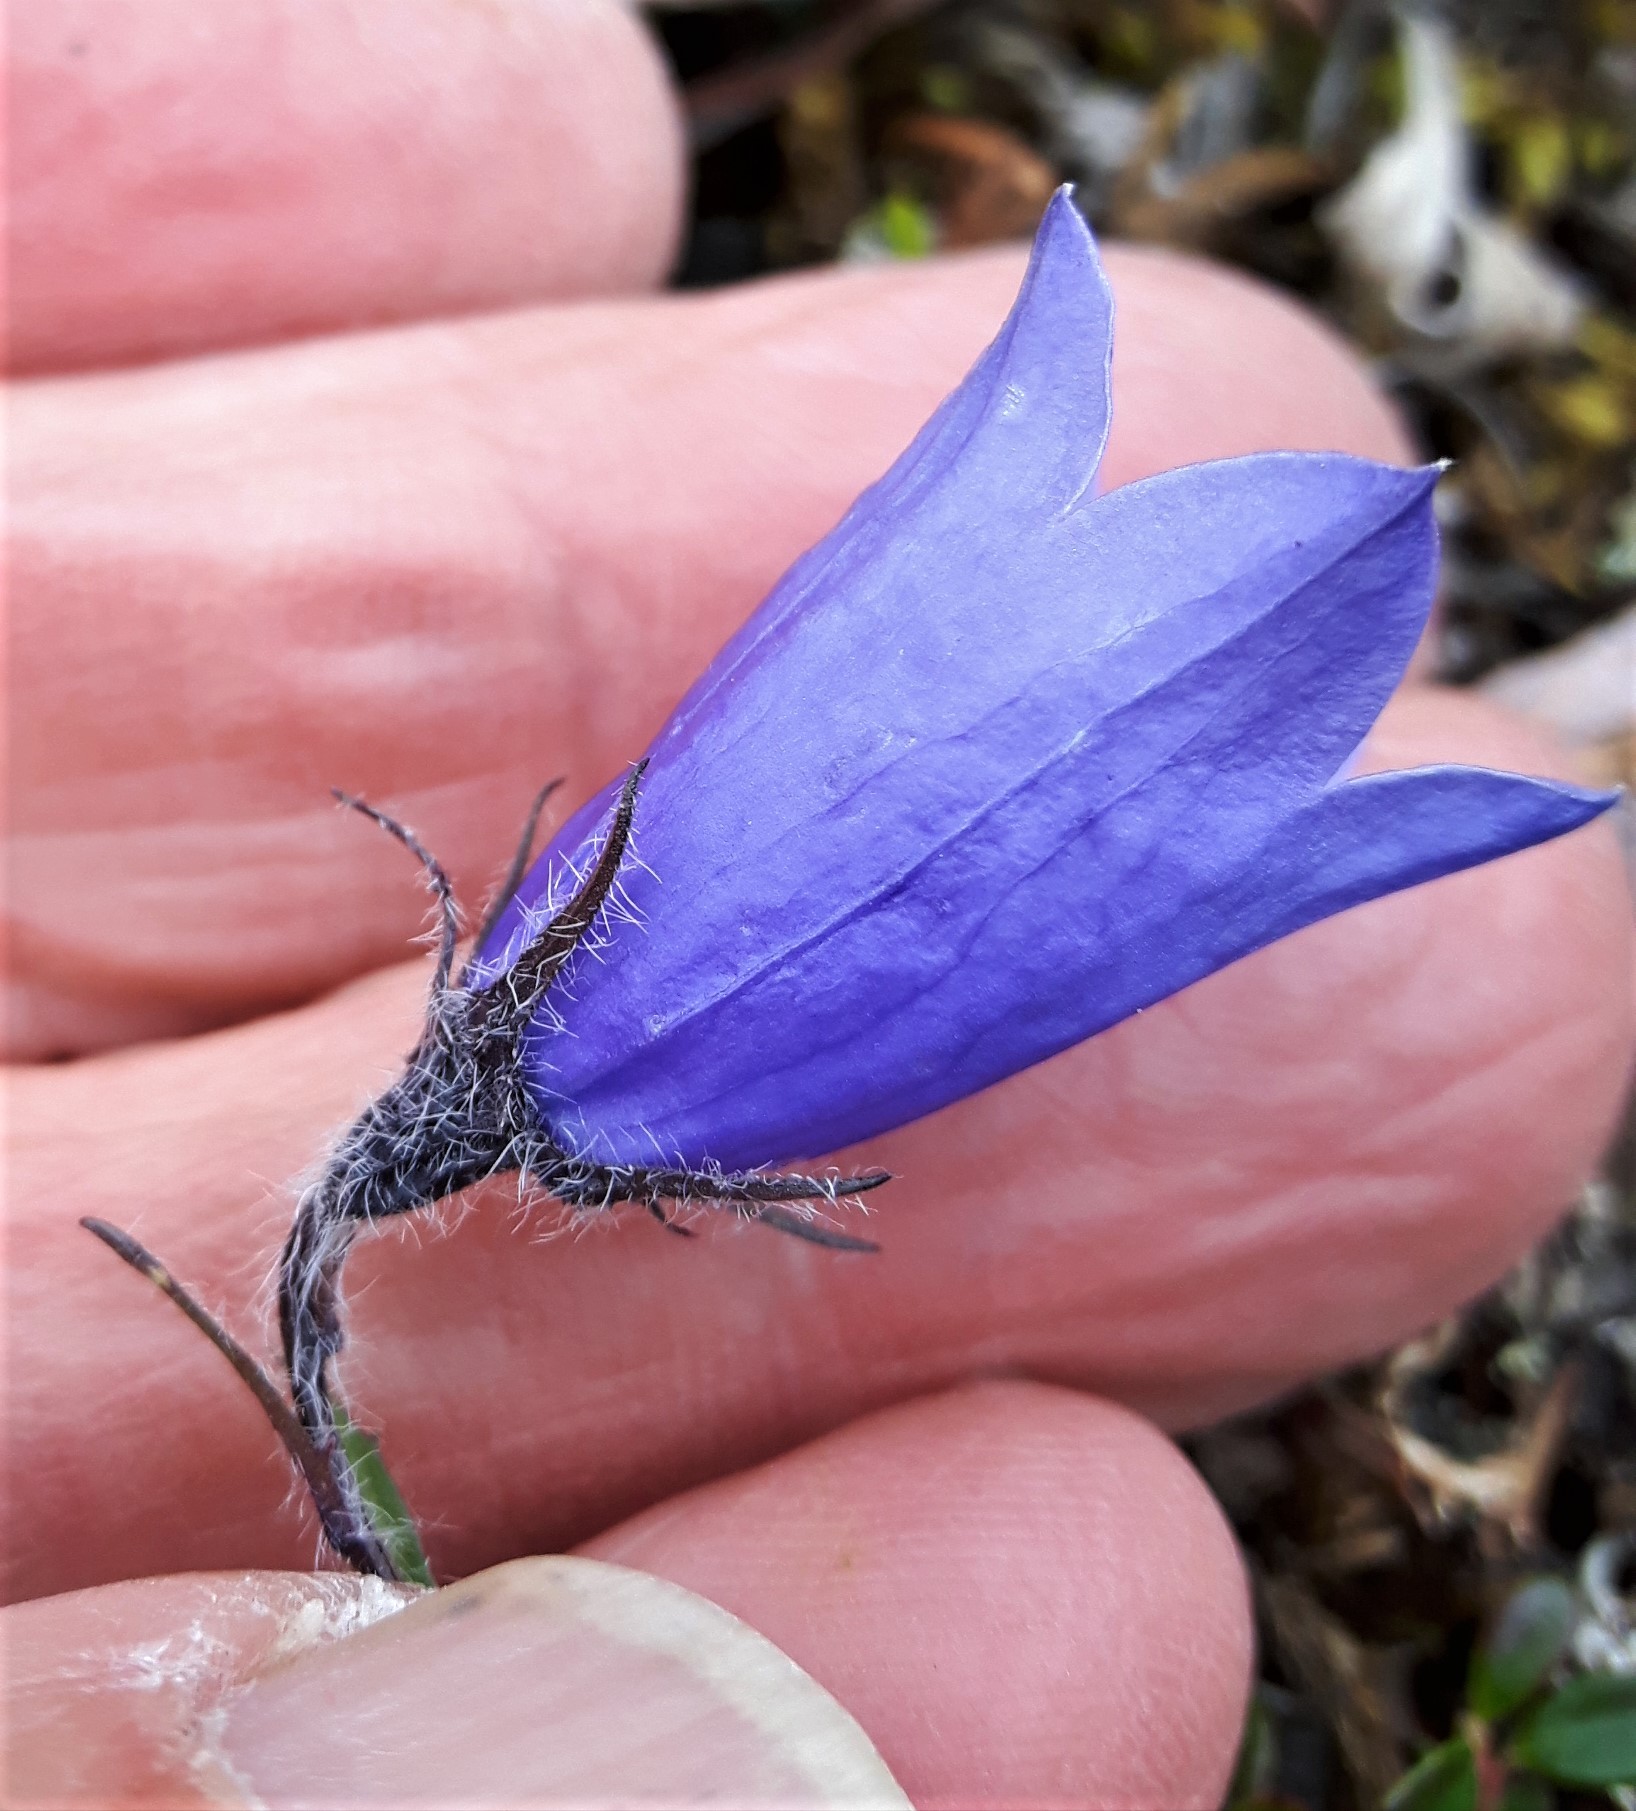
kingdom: Plantae
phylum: Tracheophyta
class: Magnoliopsida
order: Asterales
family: Campanulaceae
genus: Campanula
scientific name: Campanula lasiocarpa
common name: Mountain harebell
